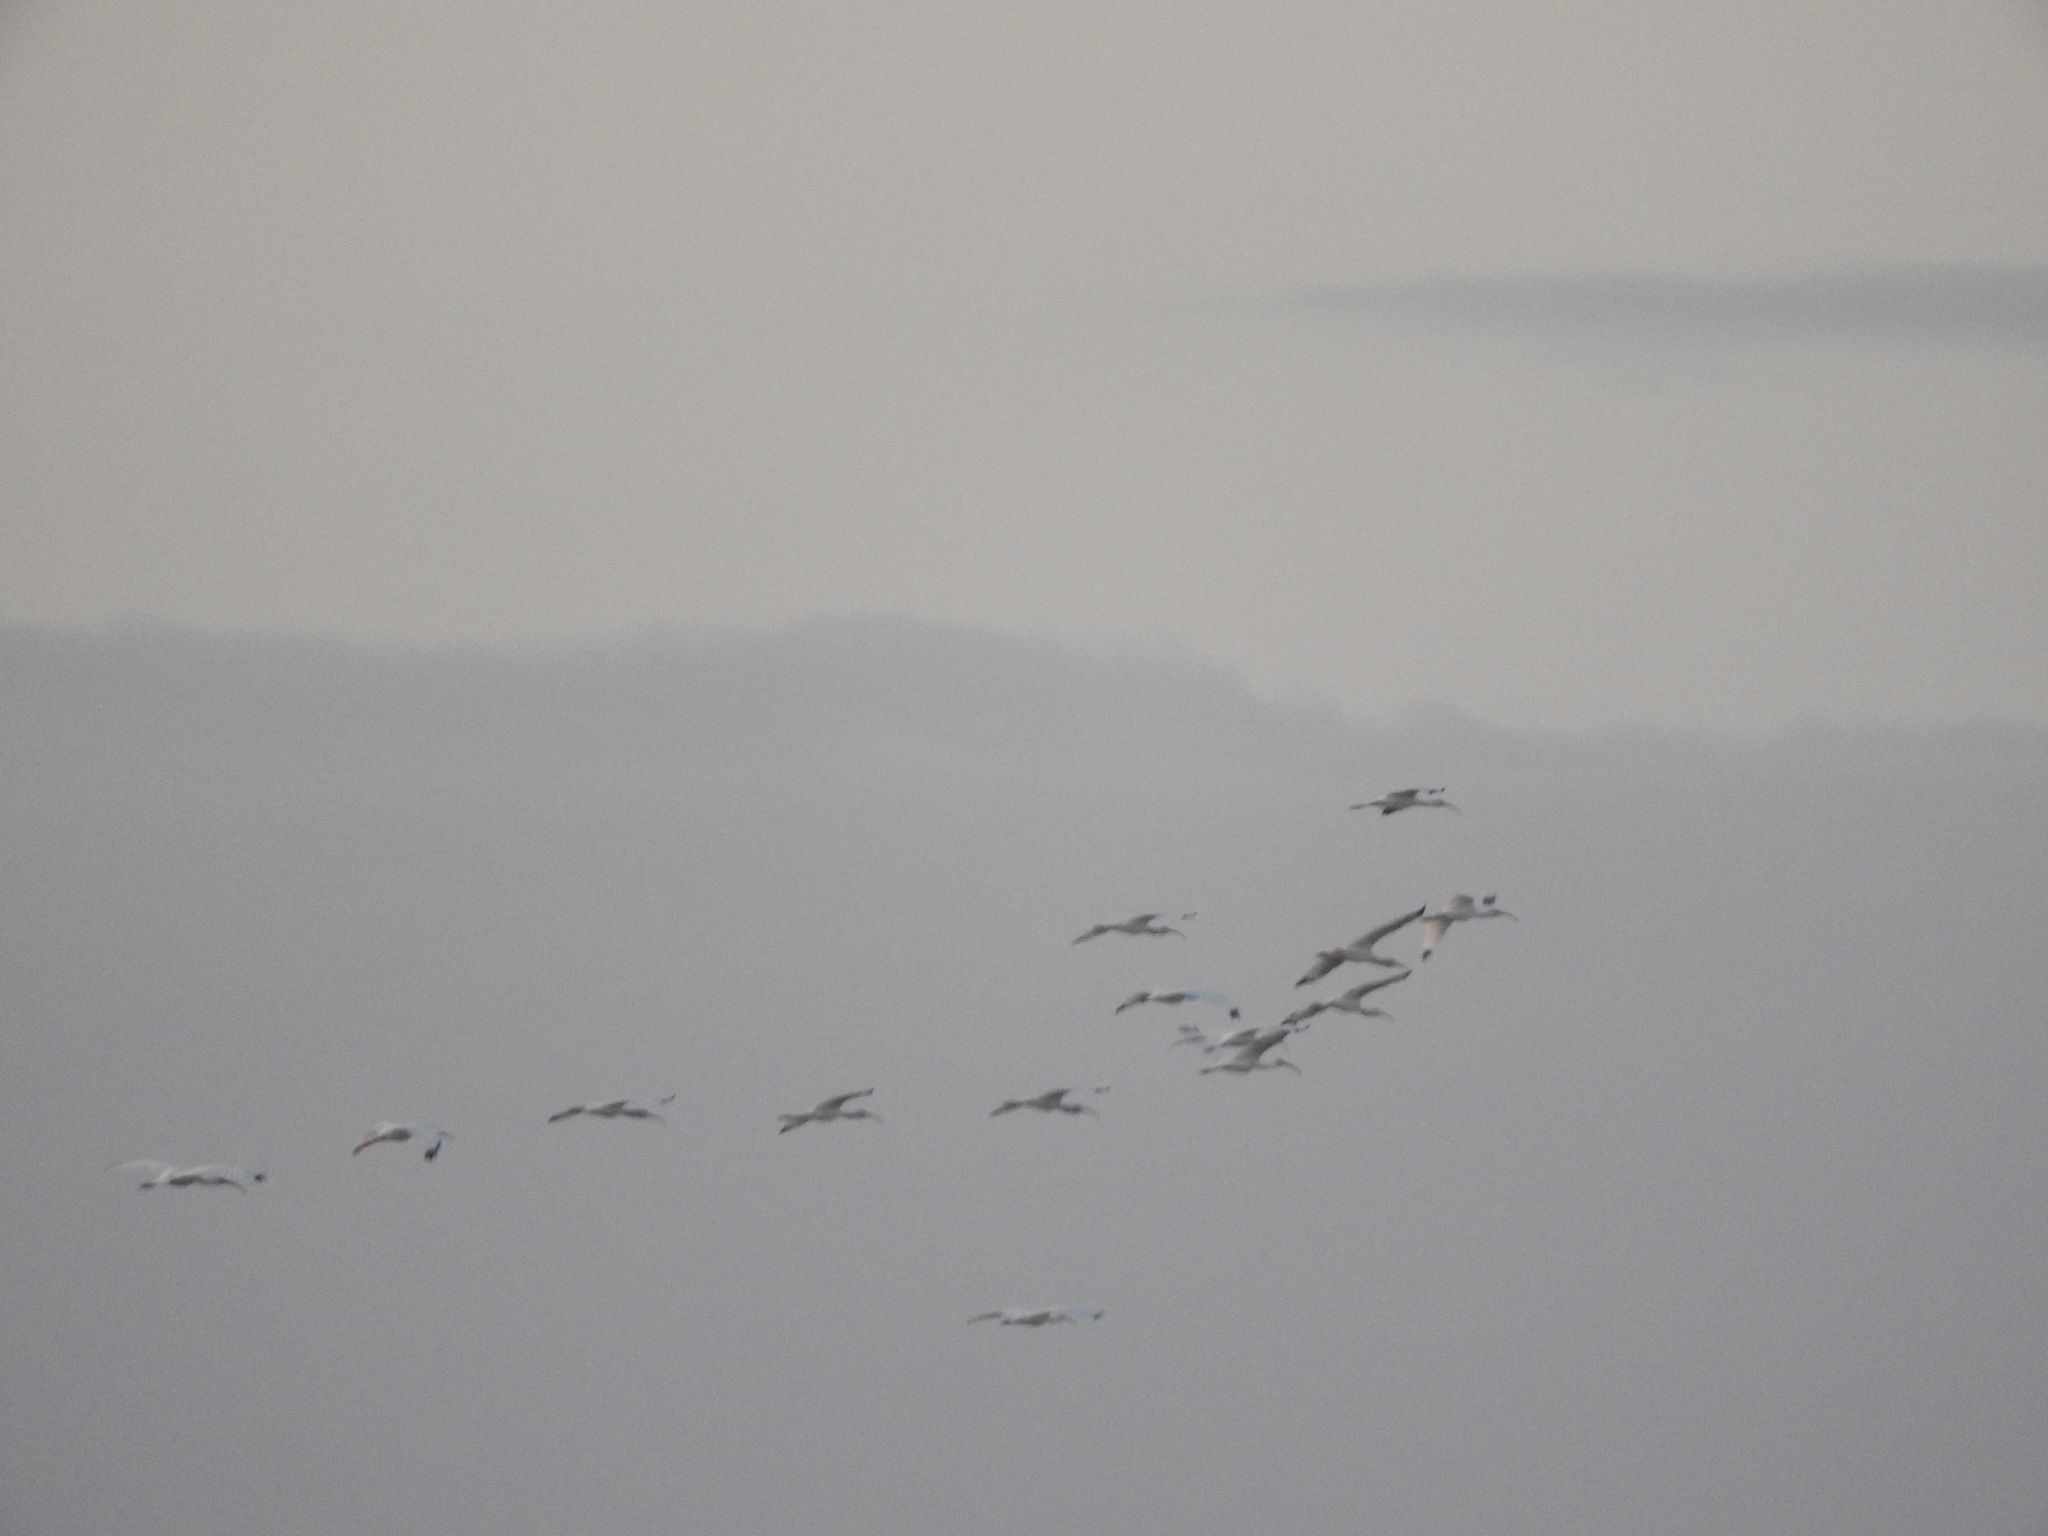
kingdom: Animalia
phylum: Chordata
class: Aves
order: Pelecaniformes
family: Threskiornithidae
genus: Eudocimus
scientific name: Eudocimus albus
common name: White ibis
